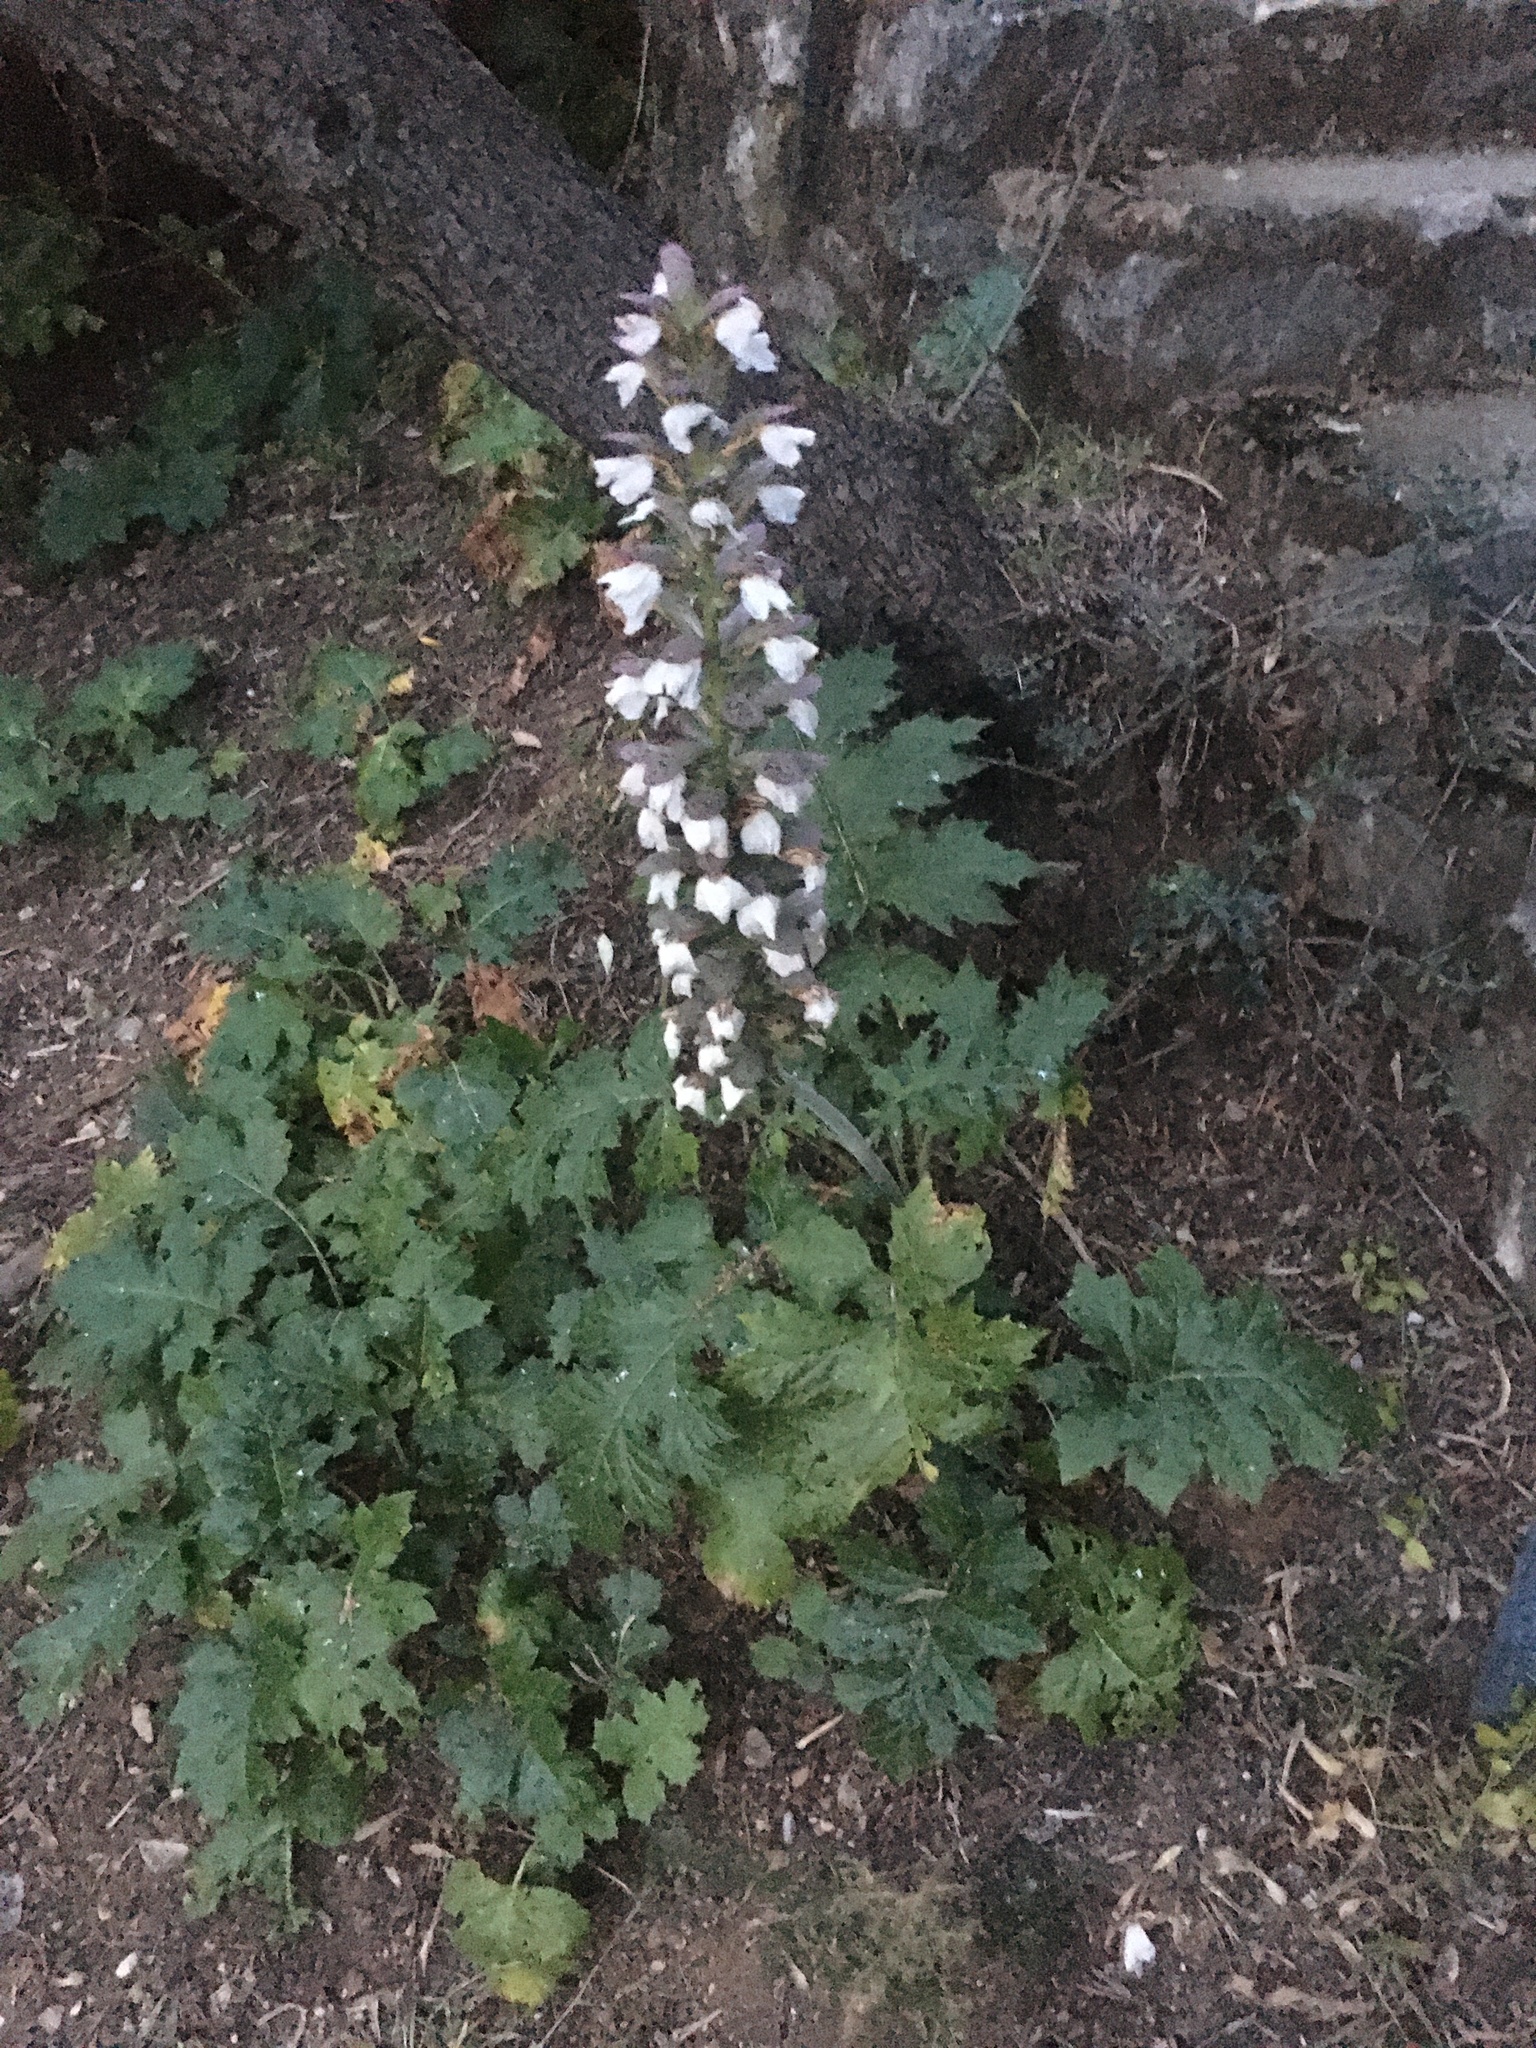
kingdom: Plantae
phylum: Tracheophyta
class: Magnoliopsida
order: Lamiales
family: Acanthaceae
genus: Acanthus
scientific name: Acanthus mollis
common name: Bear's-breech
